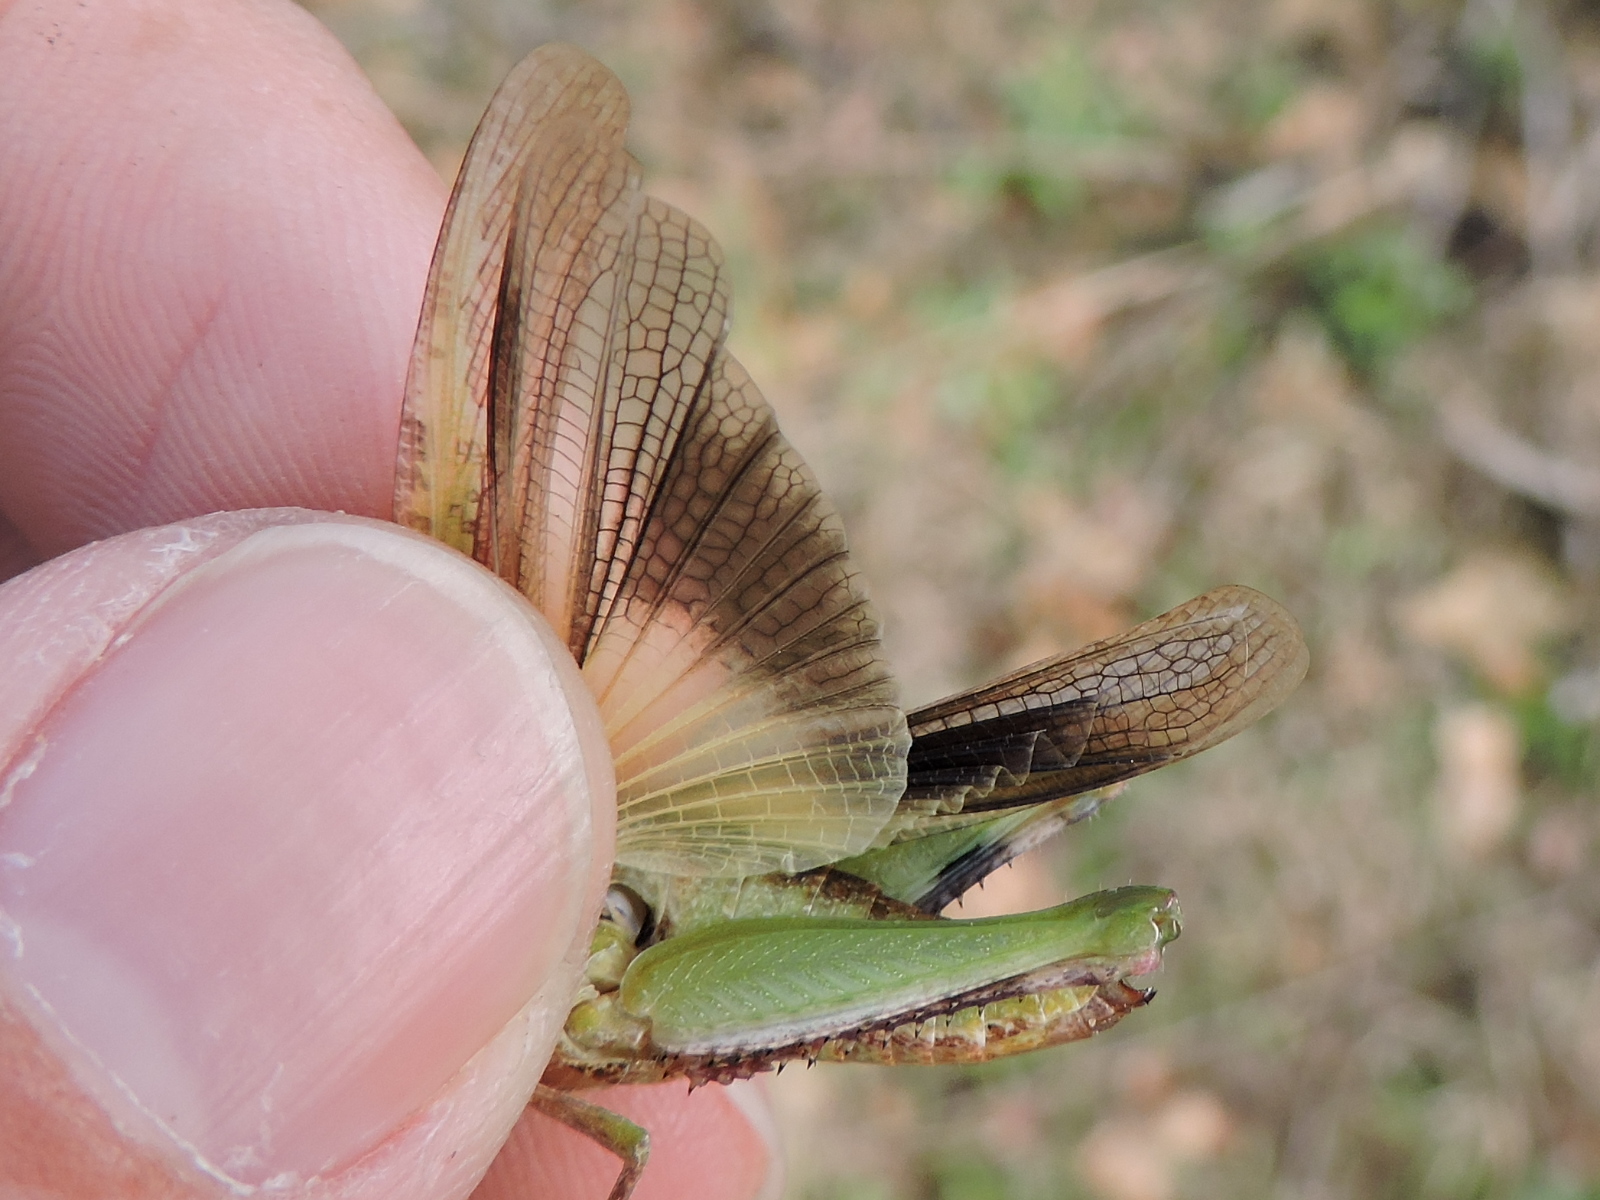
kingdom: Animalia
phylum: Arthropoda
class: Insecta
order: Orthoptera
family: Acrididae
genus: Chortophaga
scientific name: Chortophaga viridifasciata
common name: Green-striped grasshopper
